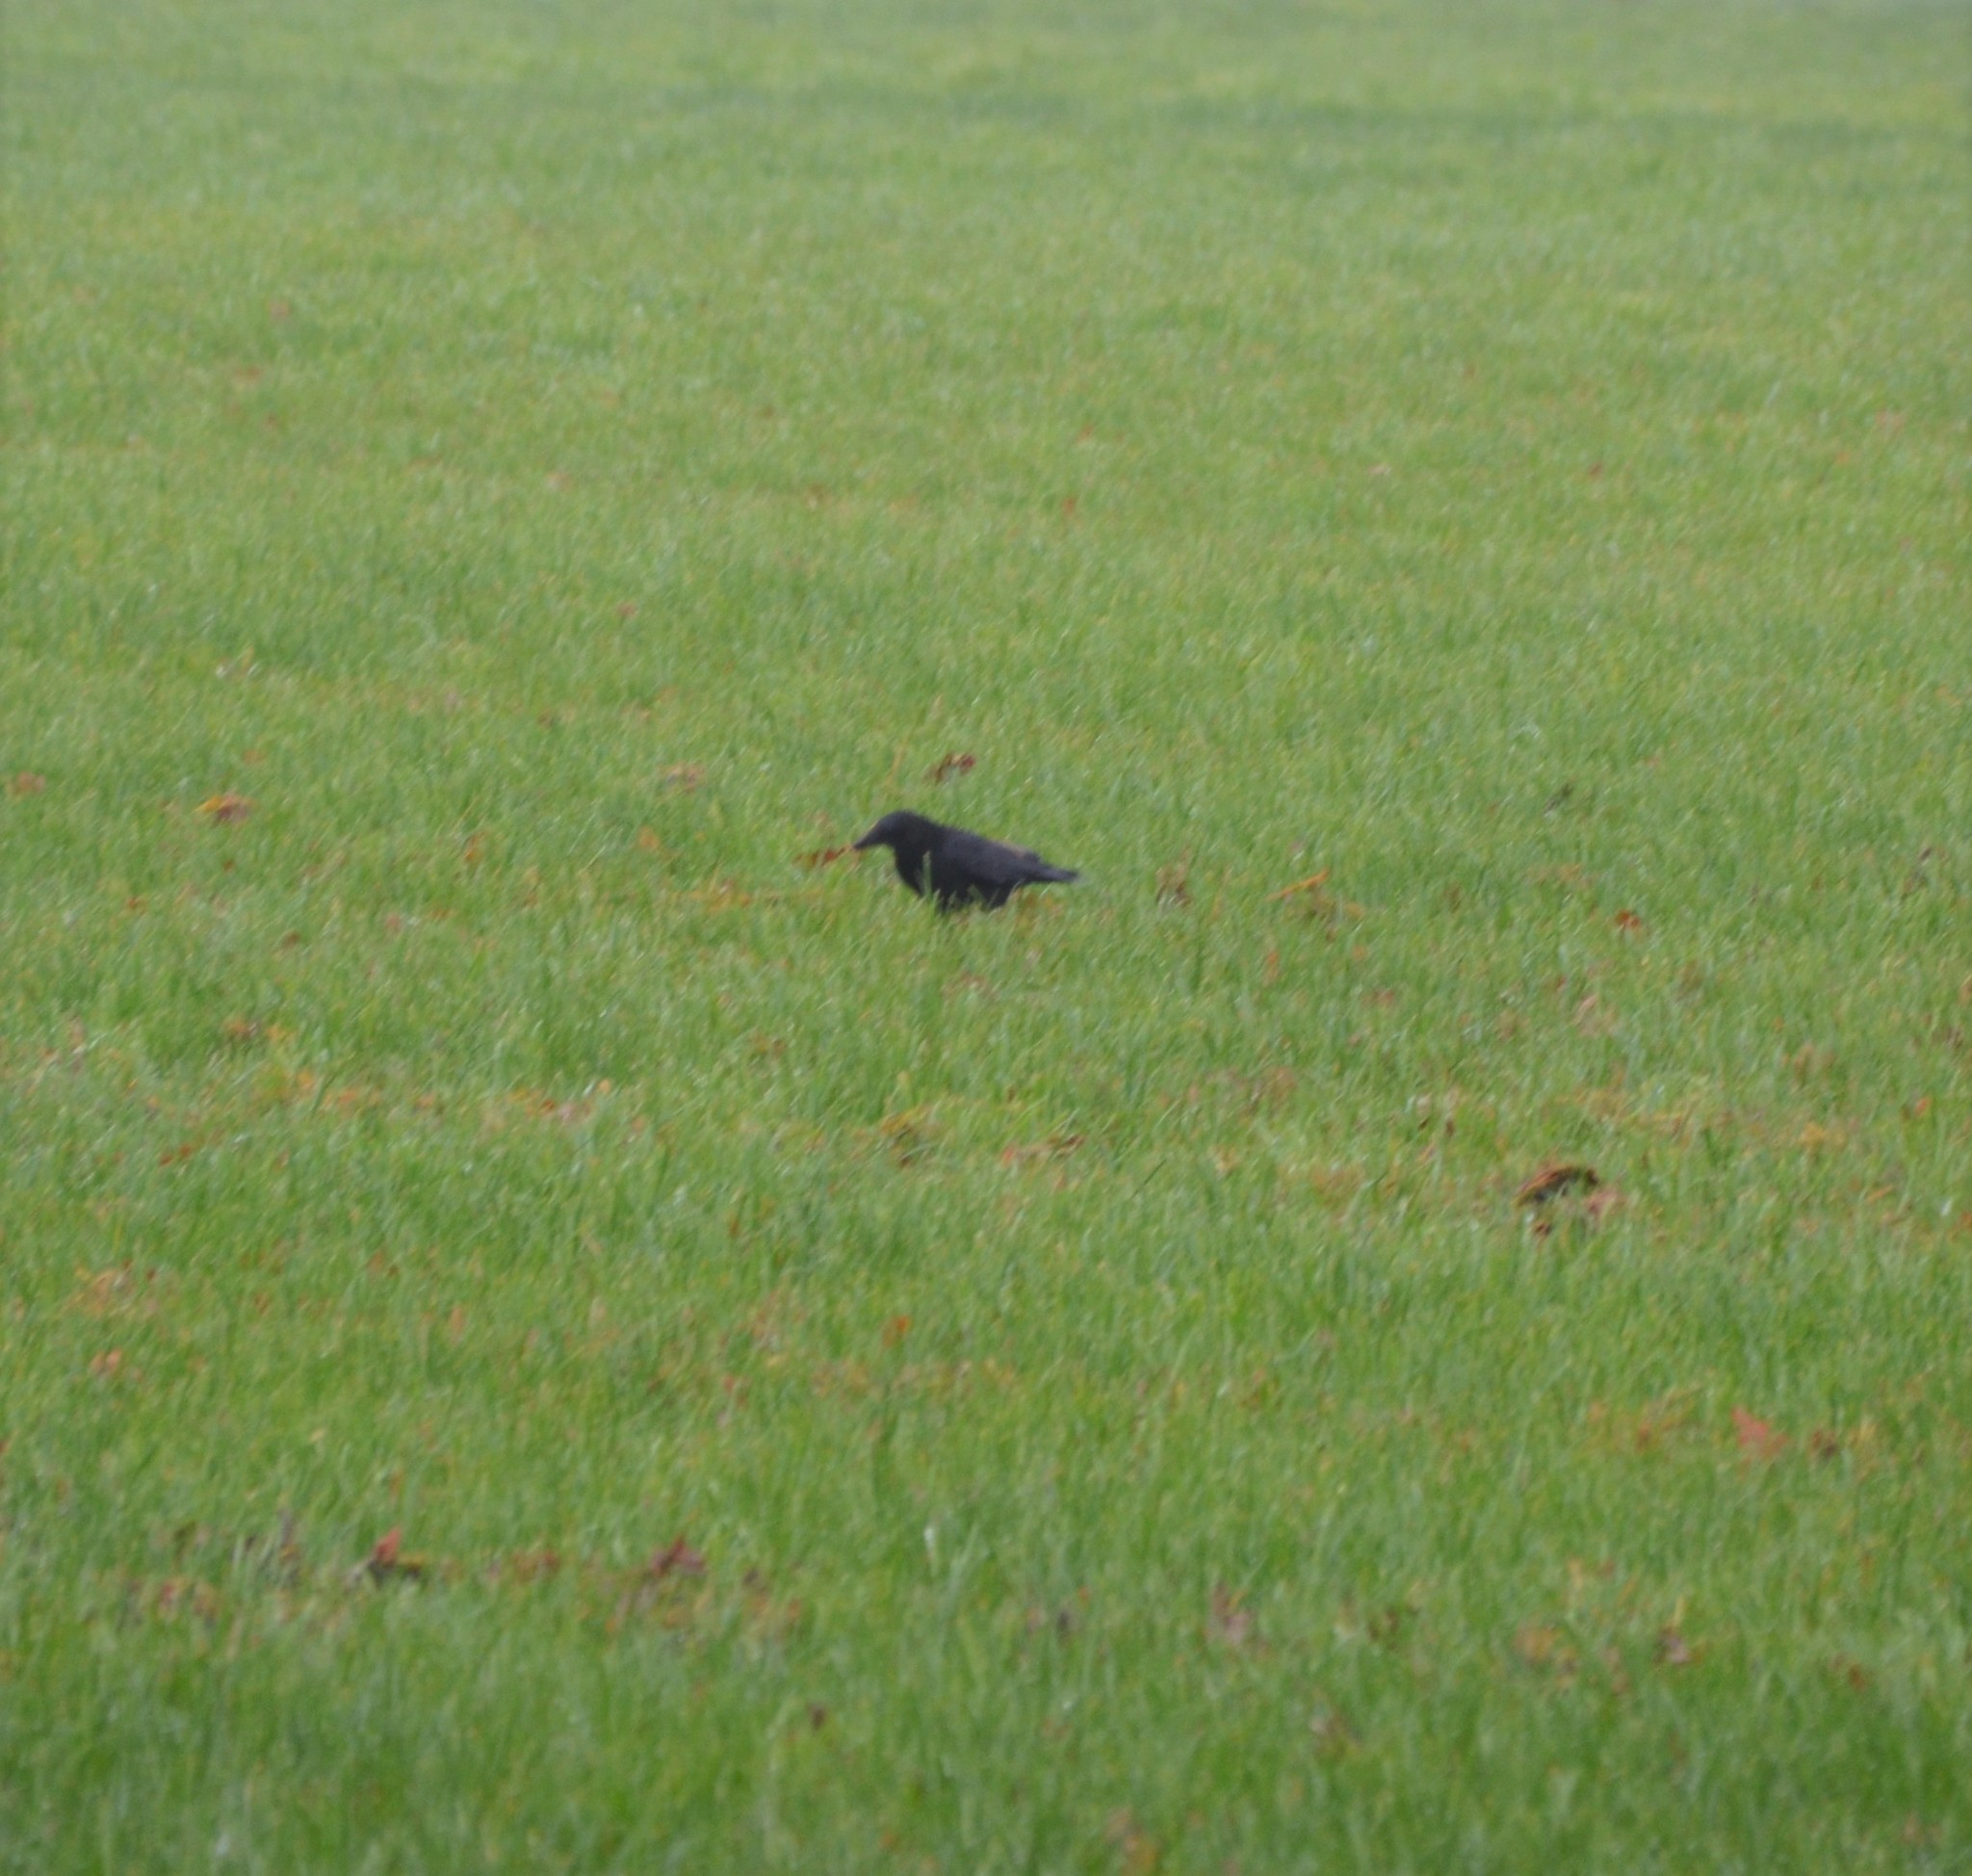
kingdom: Animalia
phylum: Chordata
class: Aves
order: Passeriformes
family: Corvidae
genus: Corvus
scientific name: Corvus corone
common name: Carrion crow
